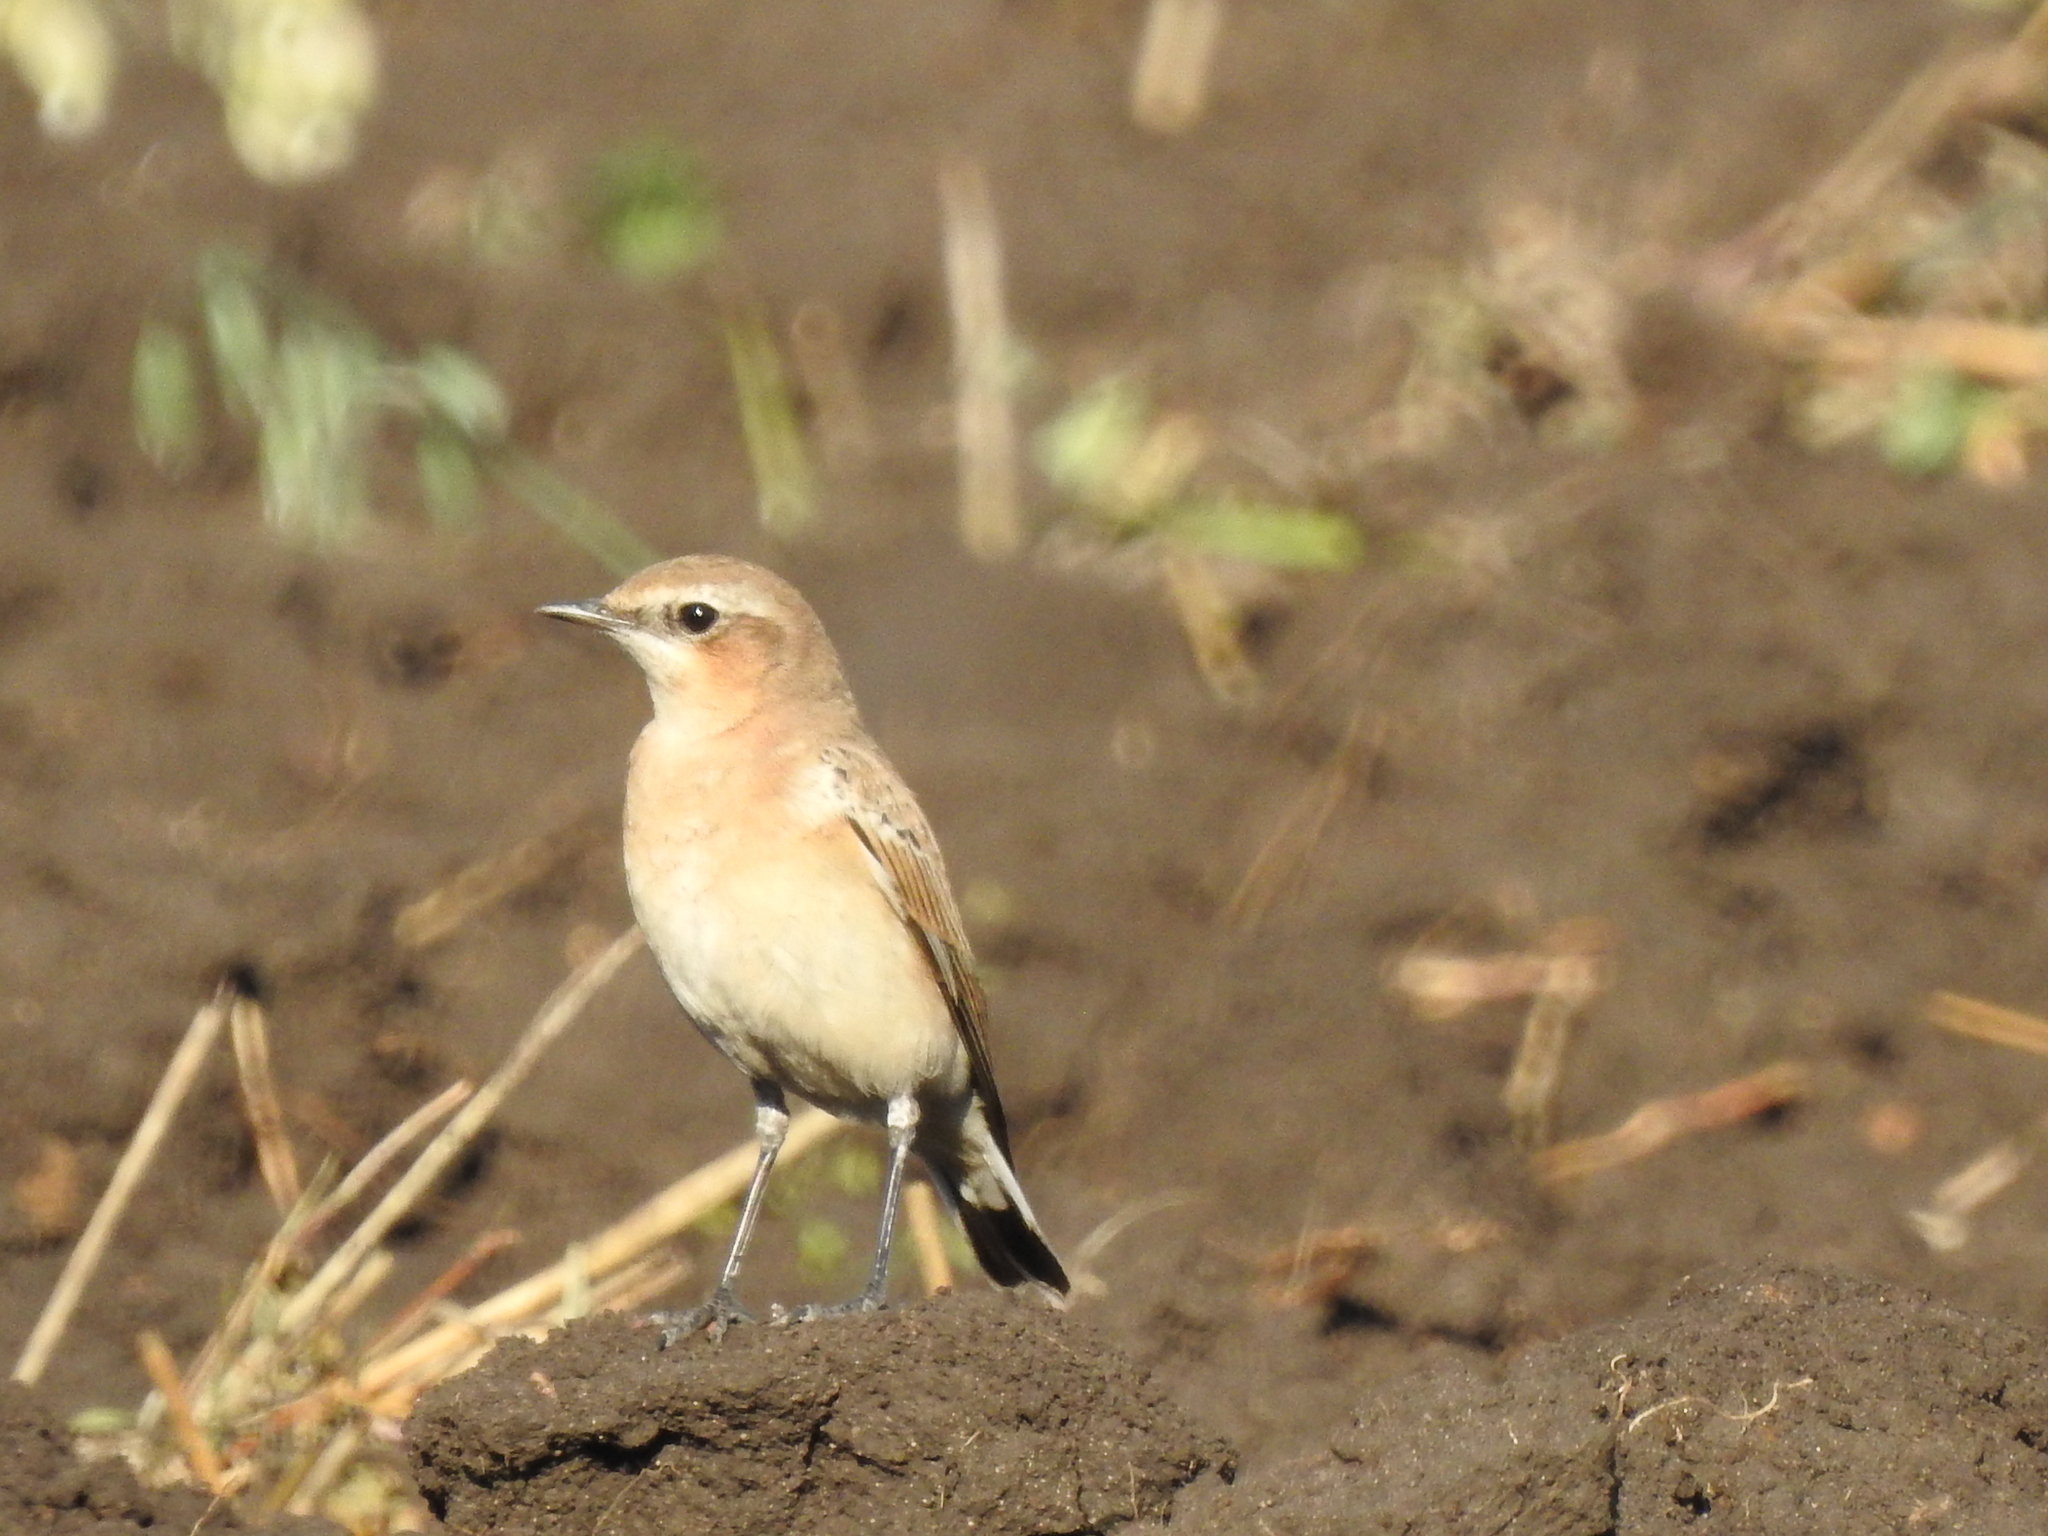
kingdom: Animalia
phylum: Chordata
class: Aves
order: Passeriformes
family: Muscicapidae
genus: Oenanthe
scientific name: Oenanthe oenanthe
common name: Northern wheatear
